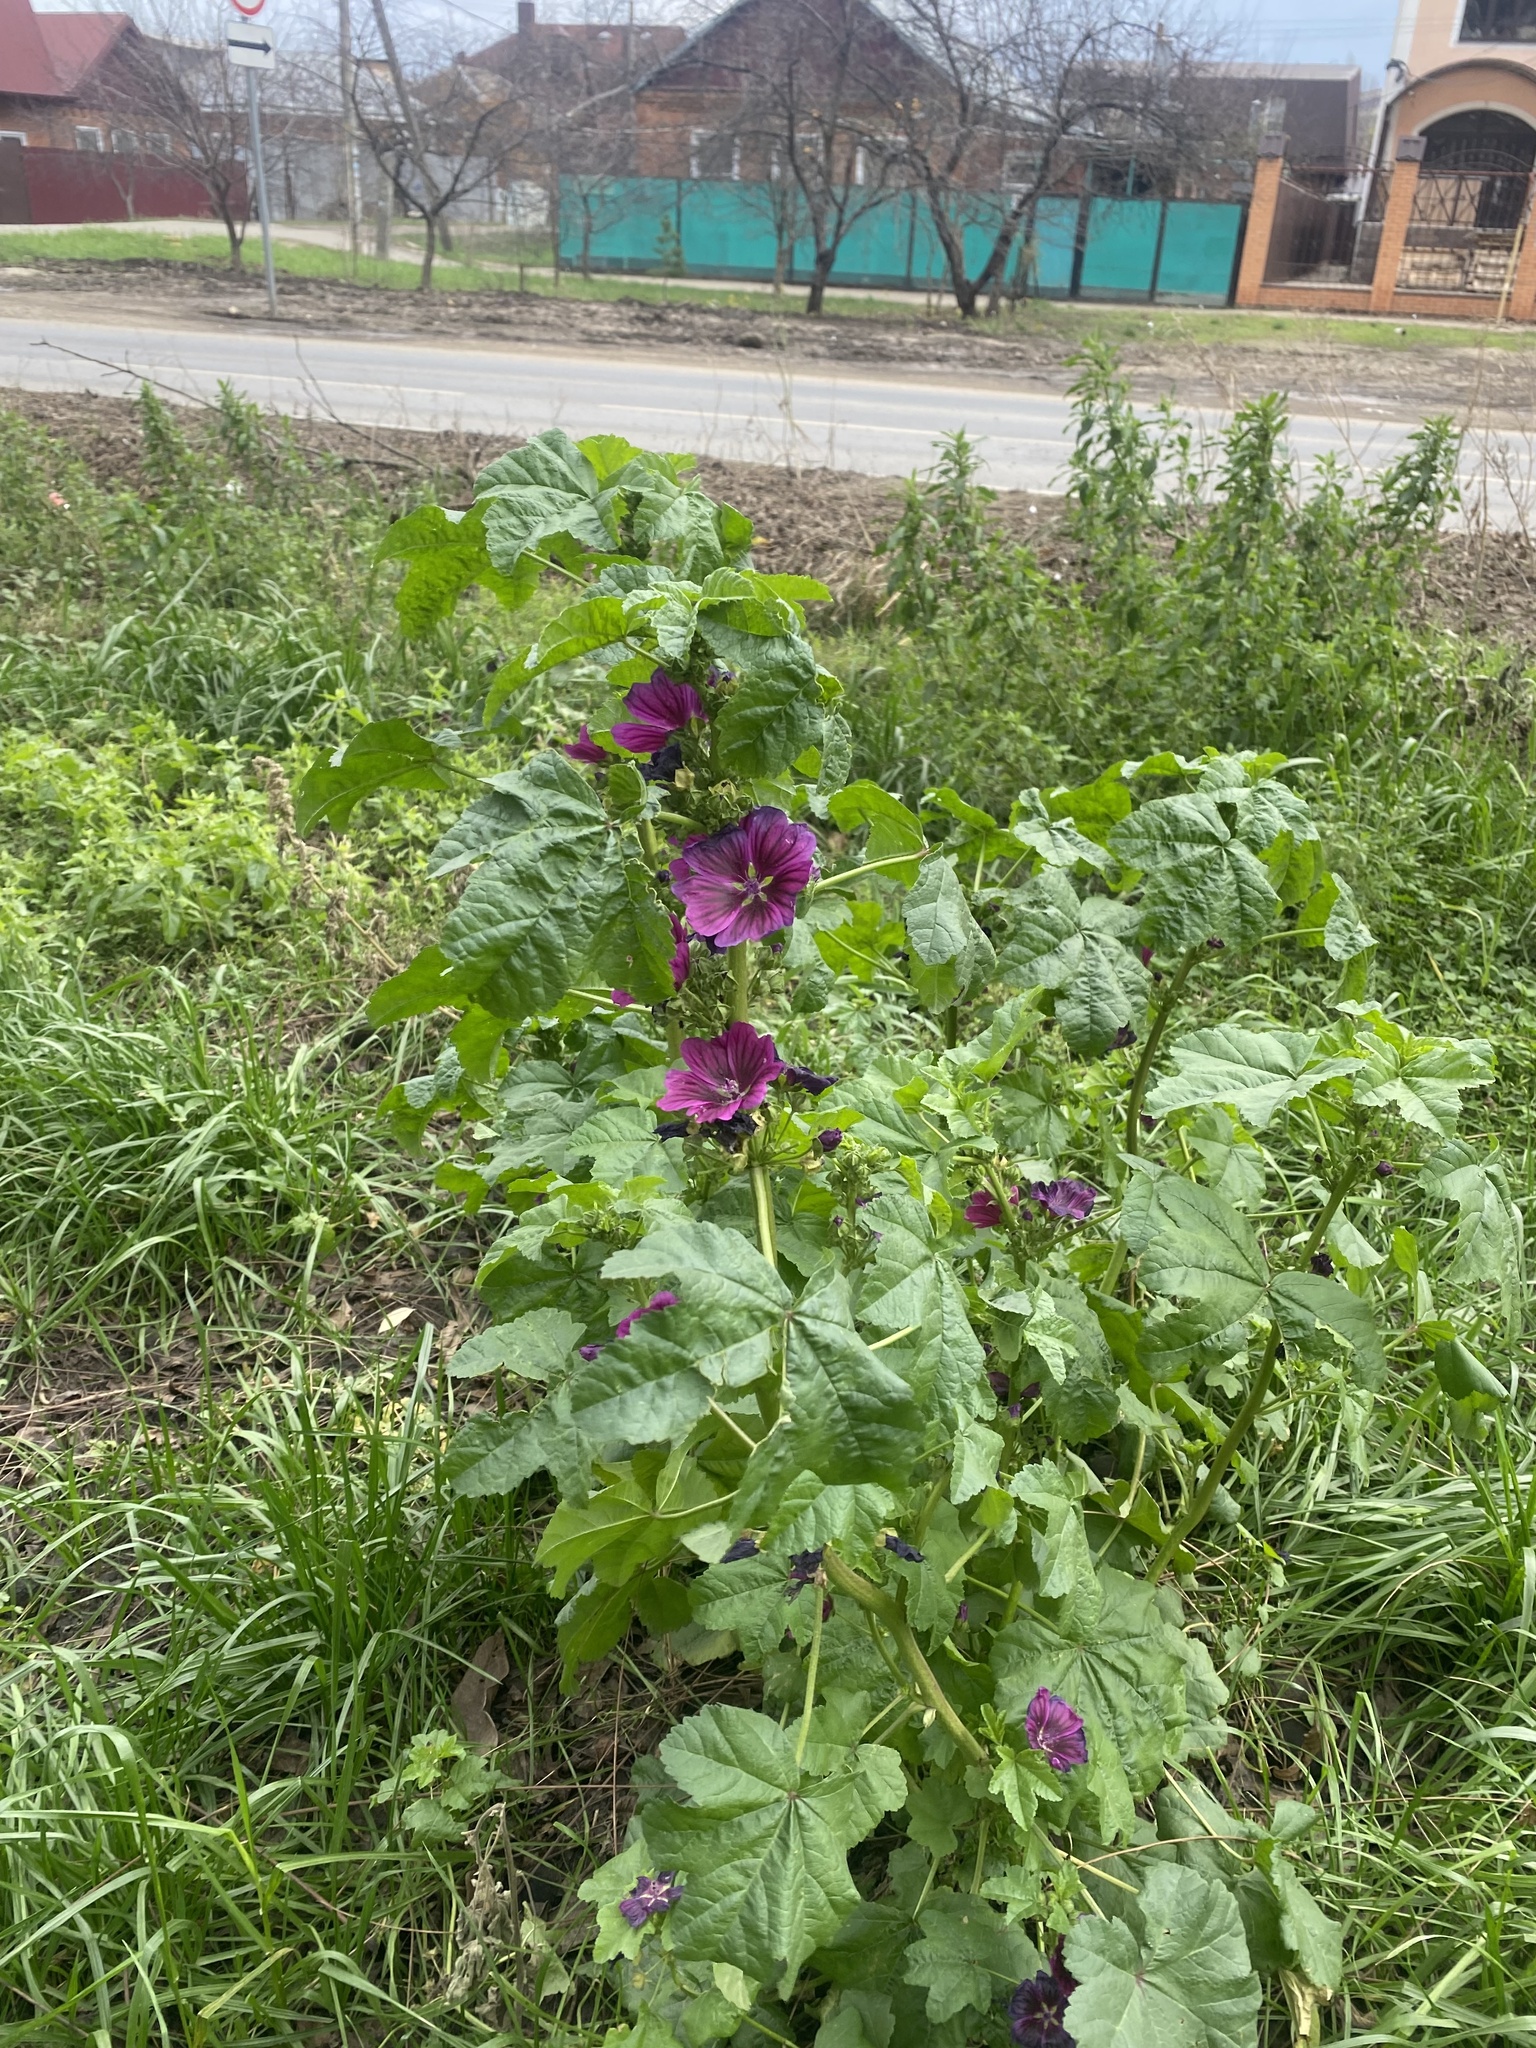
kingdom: Plantae
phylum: Tracheophyta
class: Magnoliopsida
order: Malvales
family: Malvaceae
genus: Malva
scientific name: Malva sylvestris
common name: Common mallow
